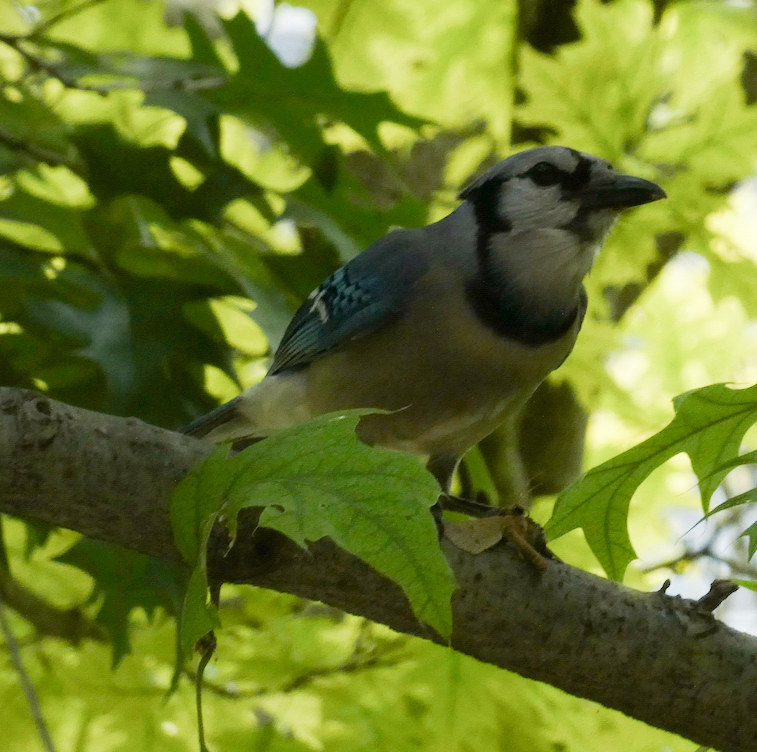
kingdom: Animalia
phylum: Chordata
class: Aves
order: Passeriformes
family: Corvidae
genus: Cyanocitta
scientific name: Cyanocitta cristata
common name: Blue jay
